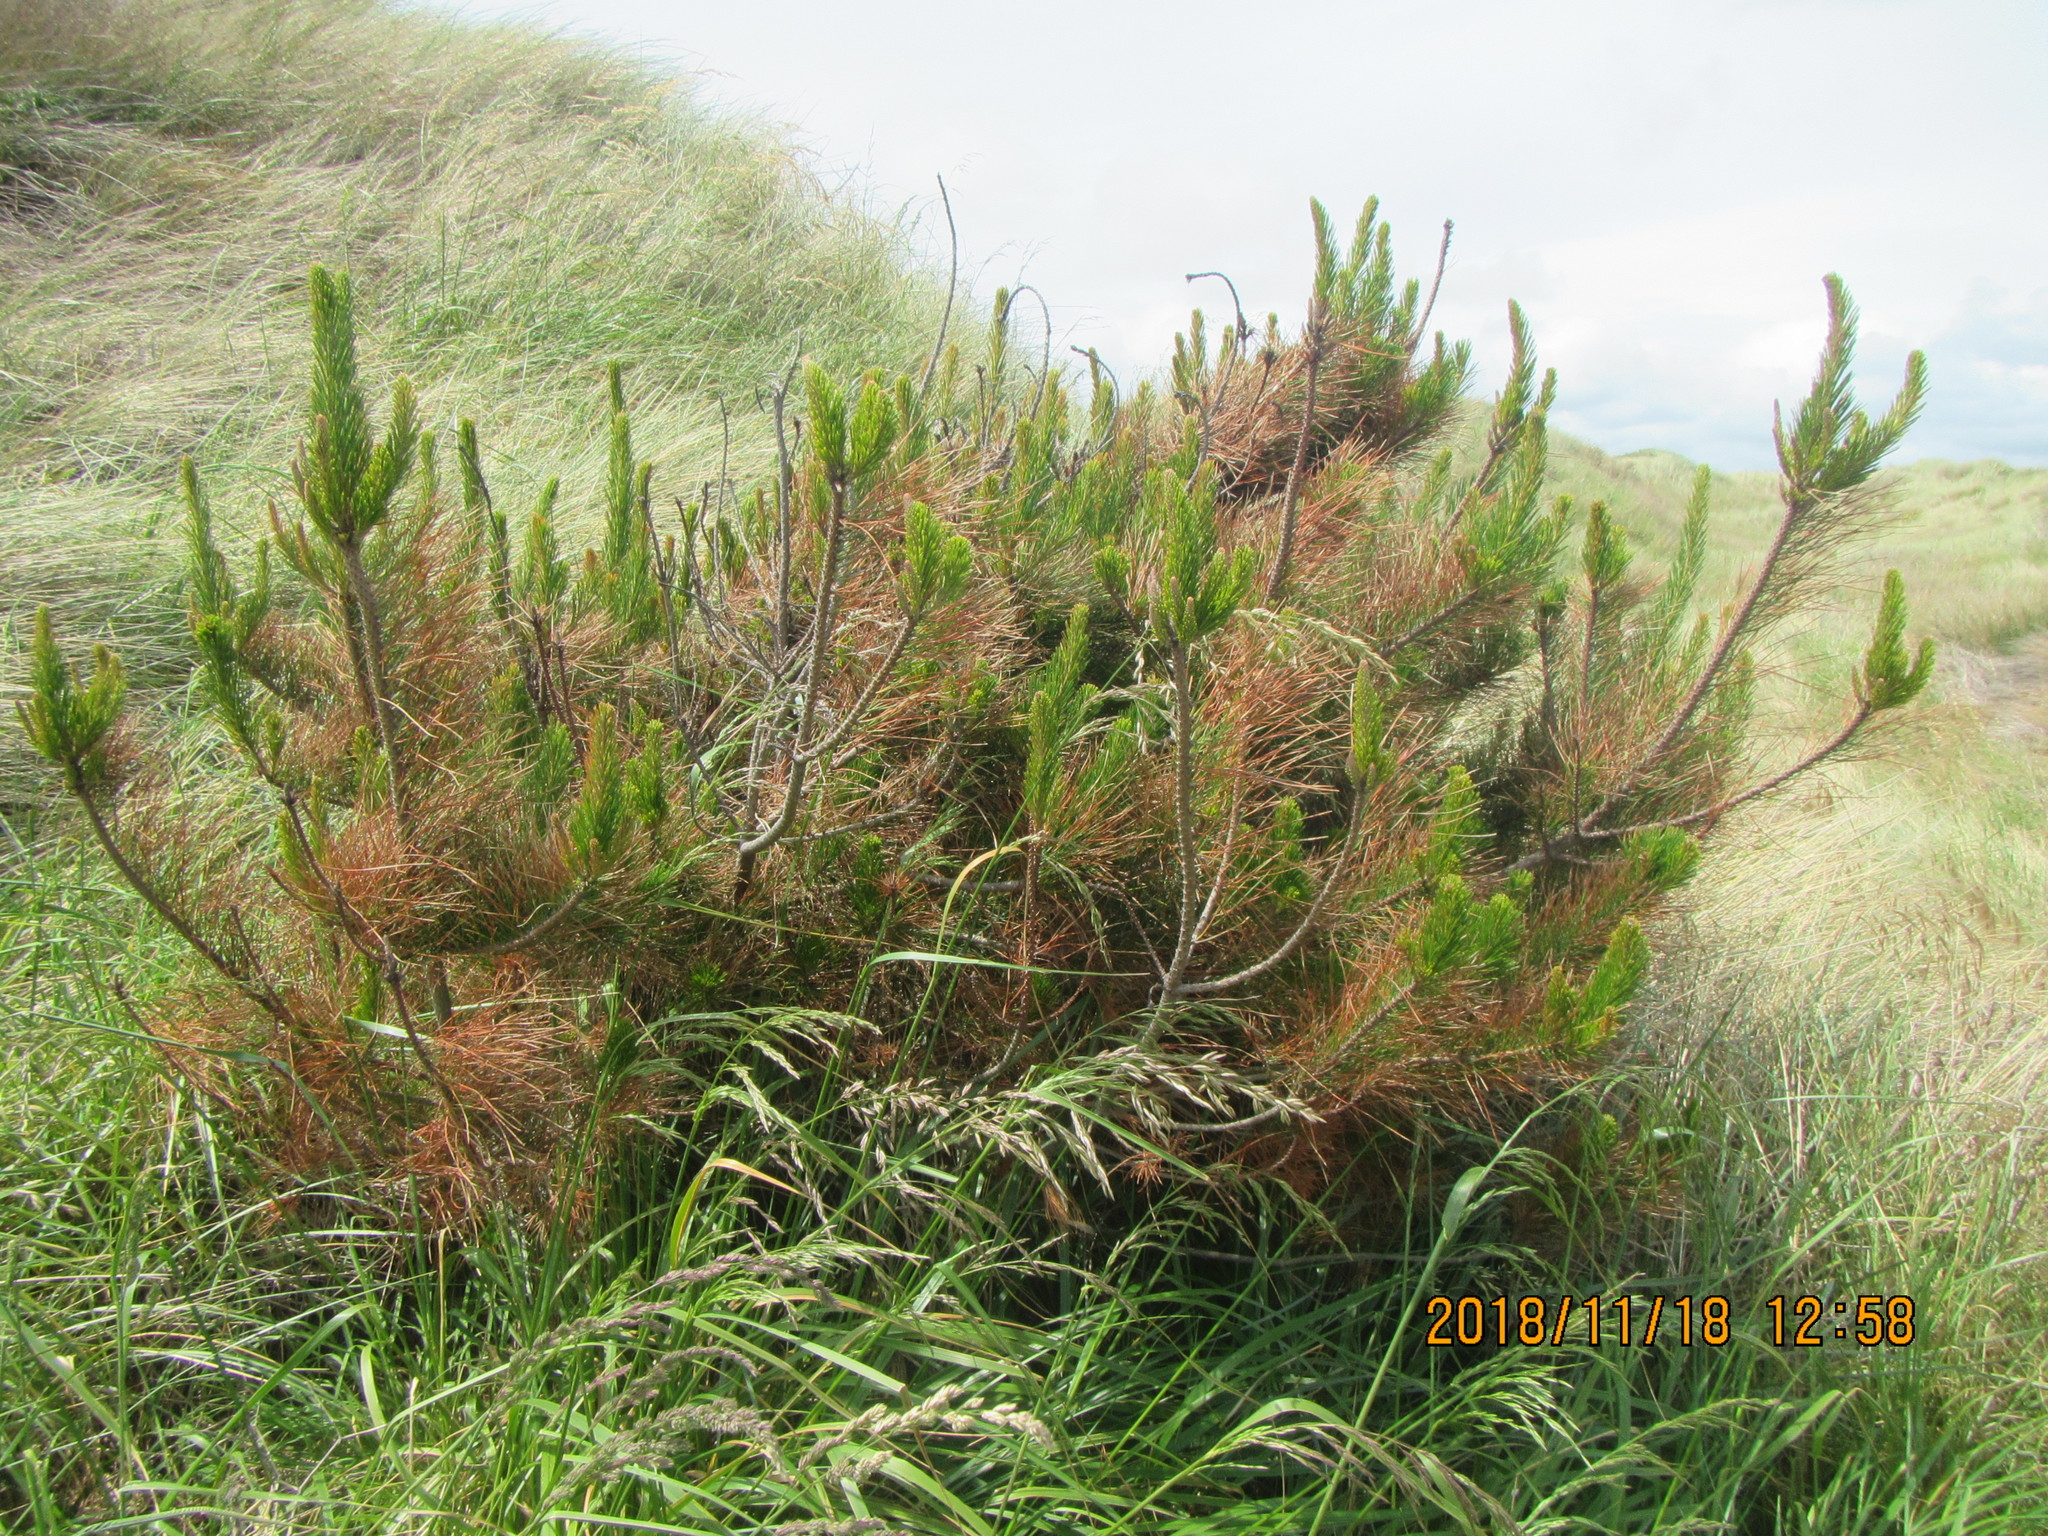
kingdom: Plantae
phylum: Tracheophyta
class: Pinopsida
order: Pinales
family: Pinaceae
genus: Pinus
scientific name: Pinus radiata
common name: Monterey pine
